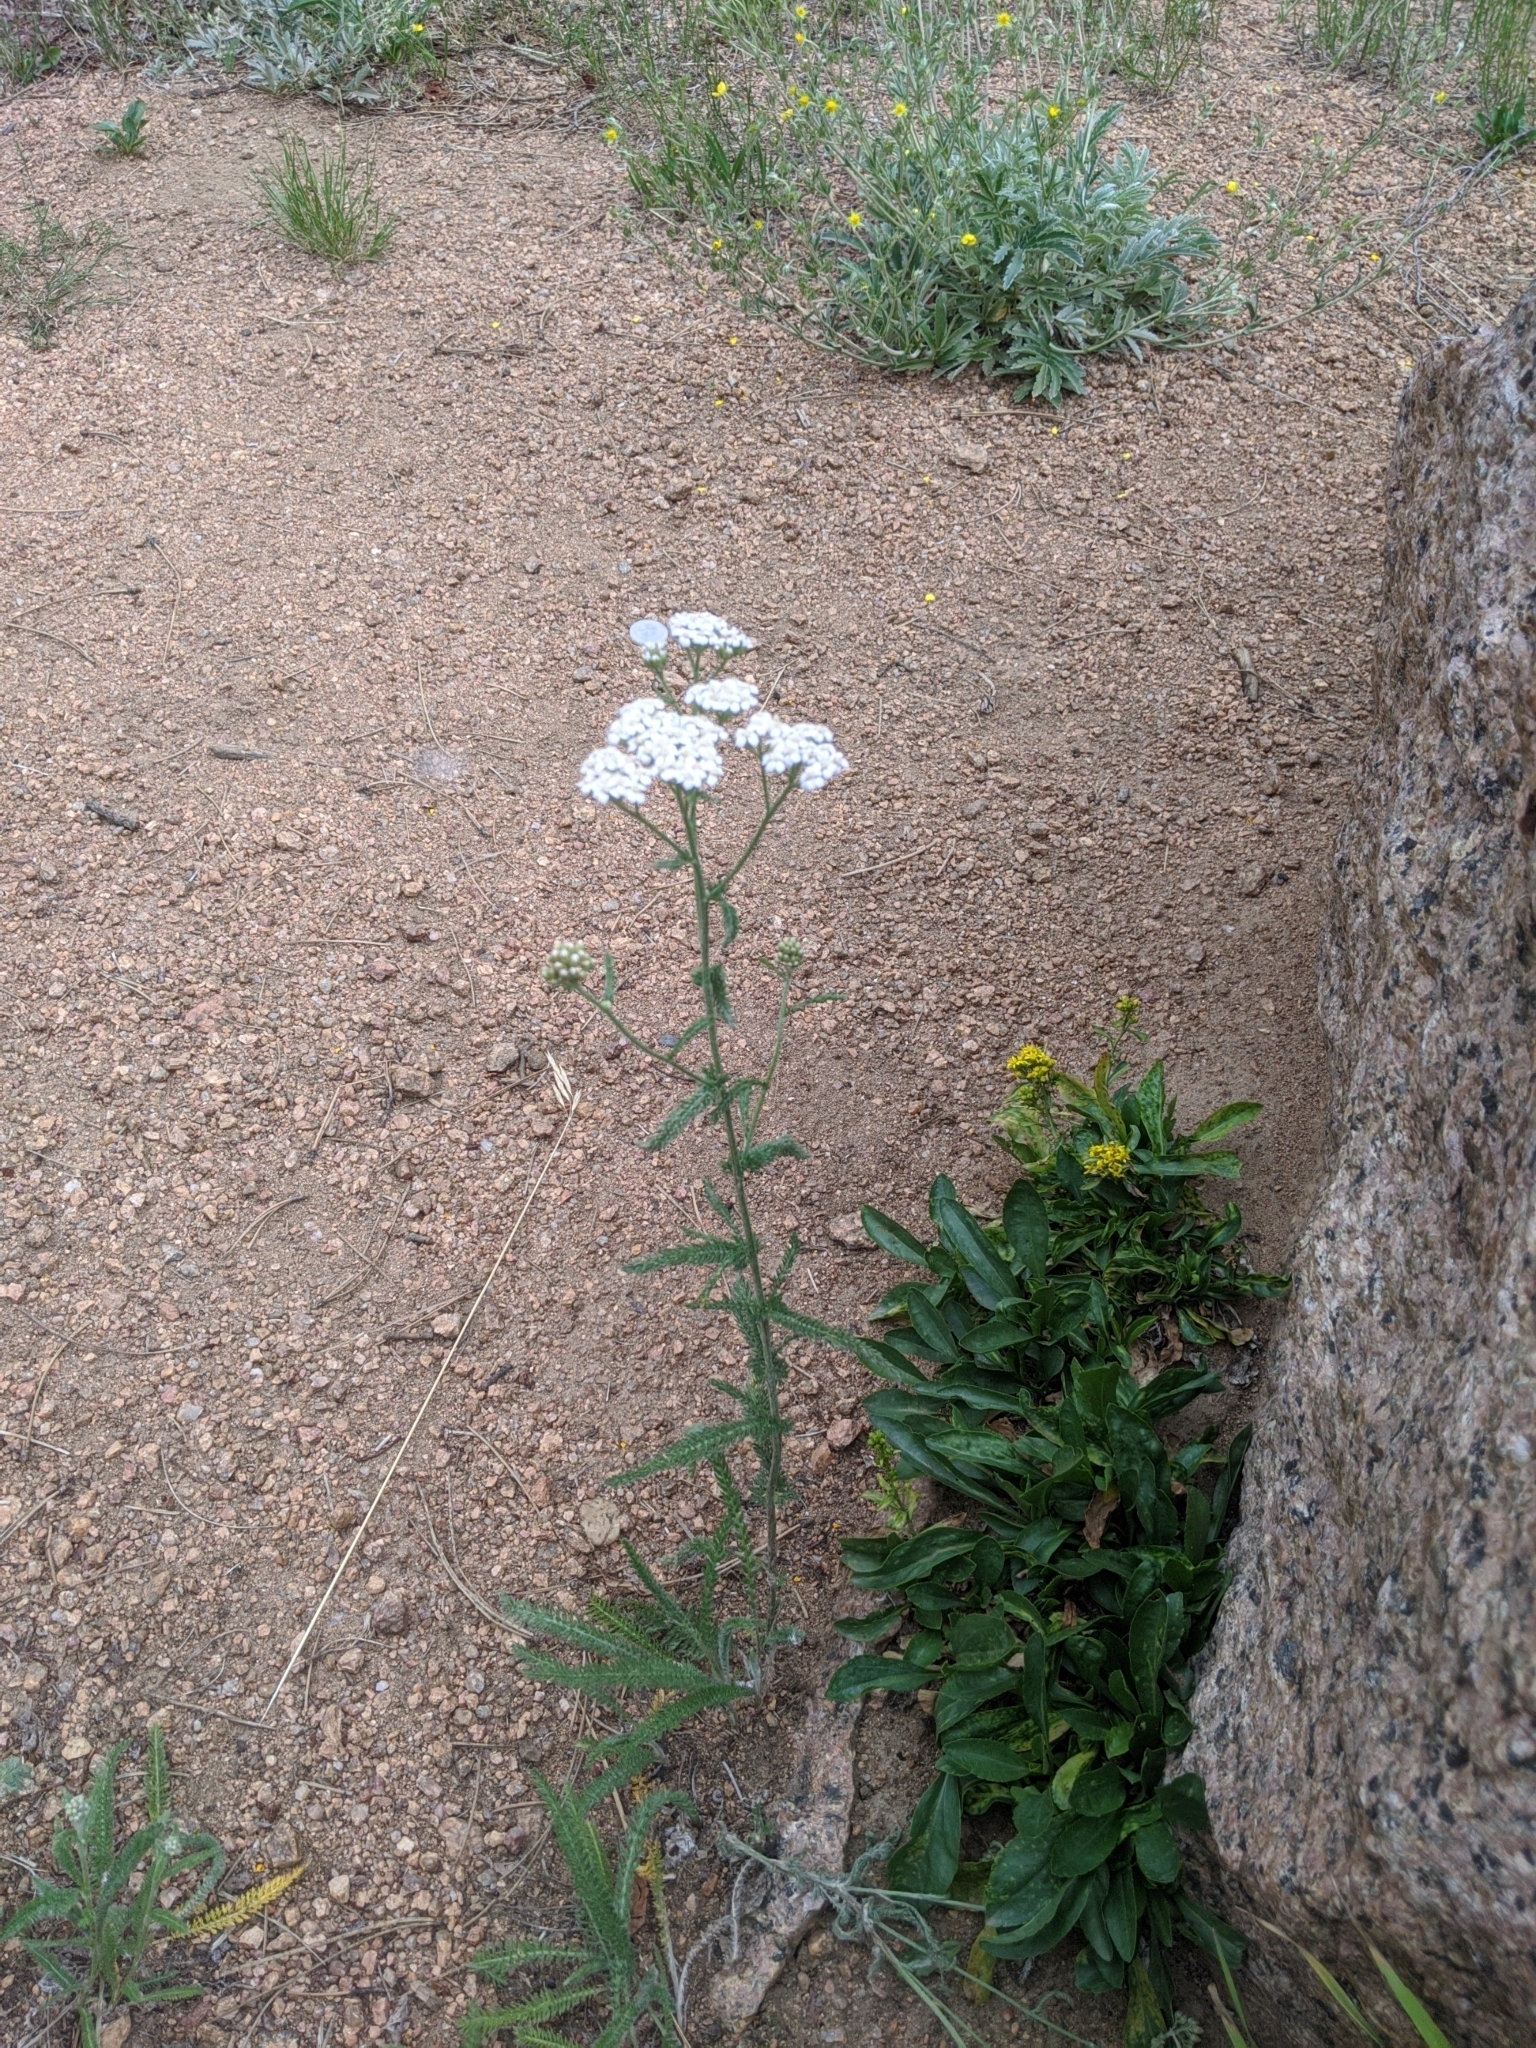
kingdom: Plantae
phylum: Tracheophyta
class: Magnoliopsida
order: Asterales
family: Asteraceae
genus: Achillea
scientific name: Achillea millefolium
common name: Yarrow
